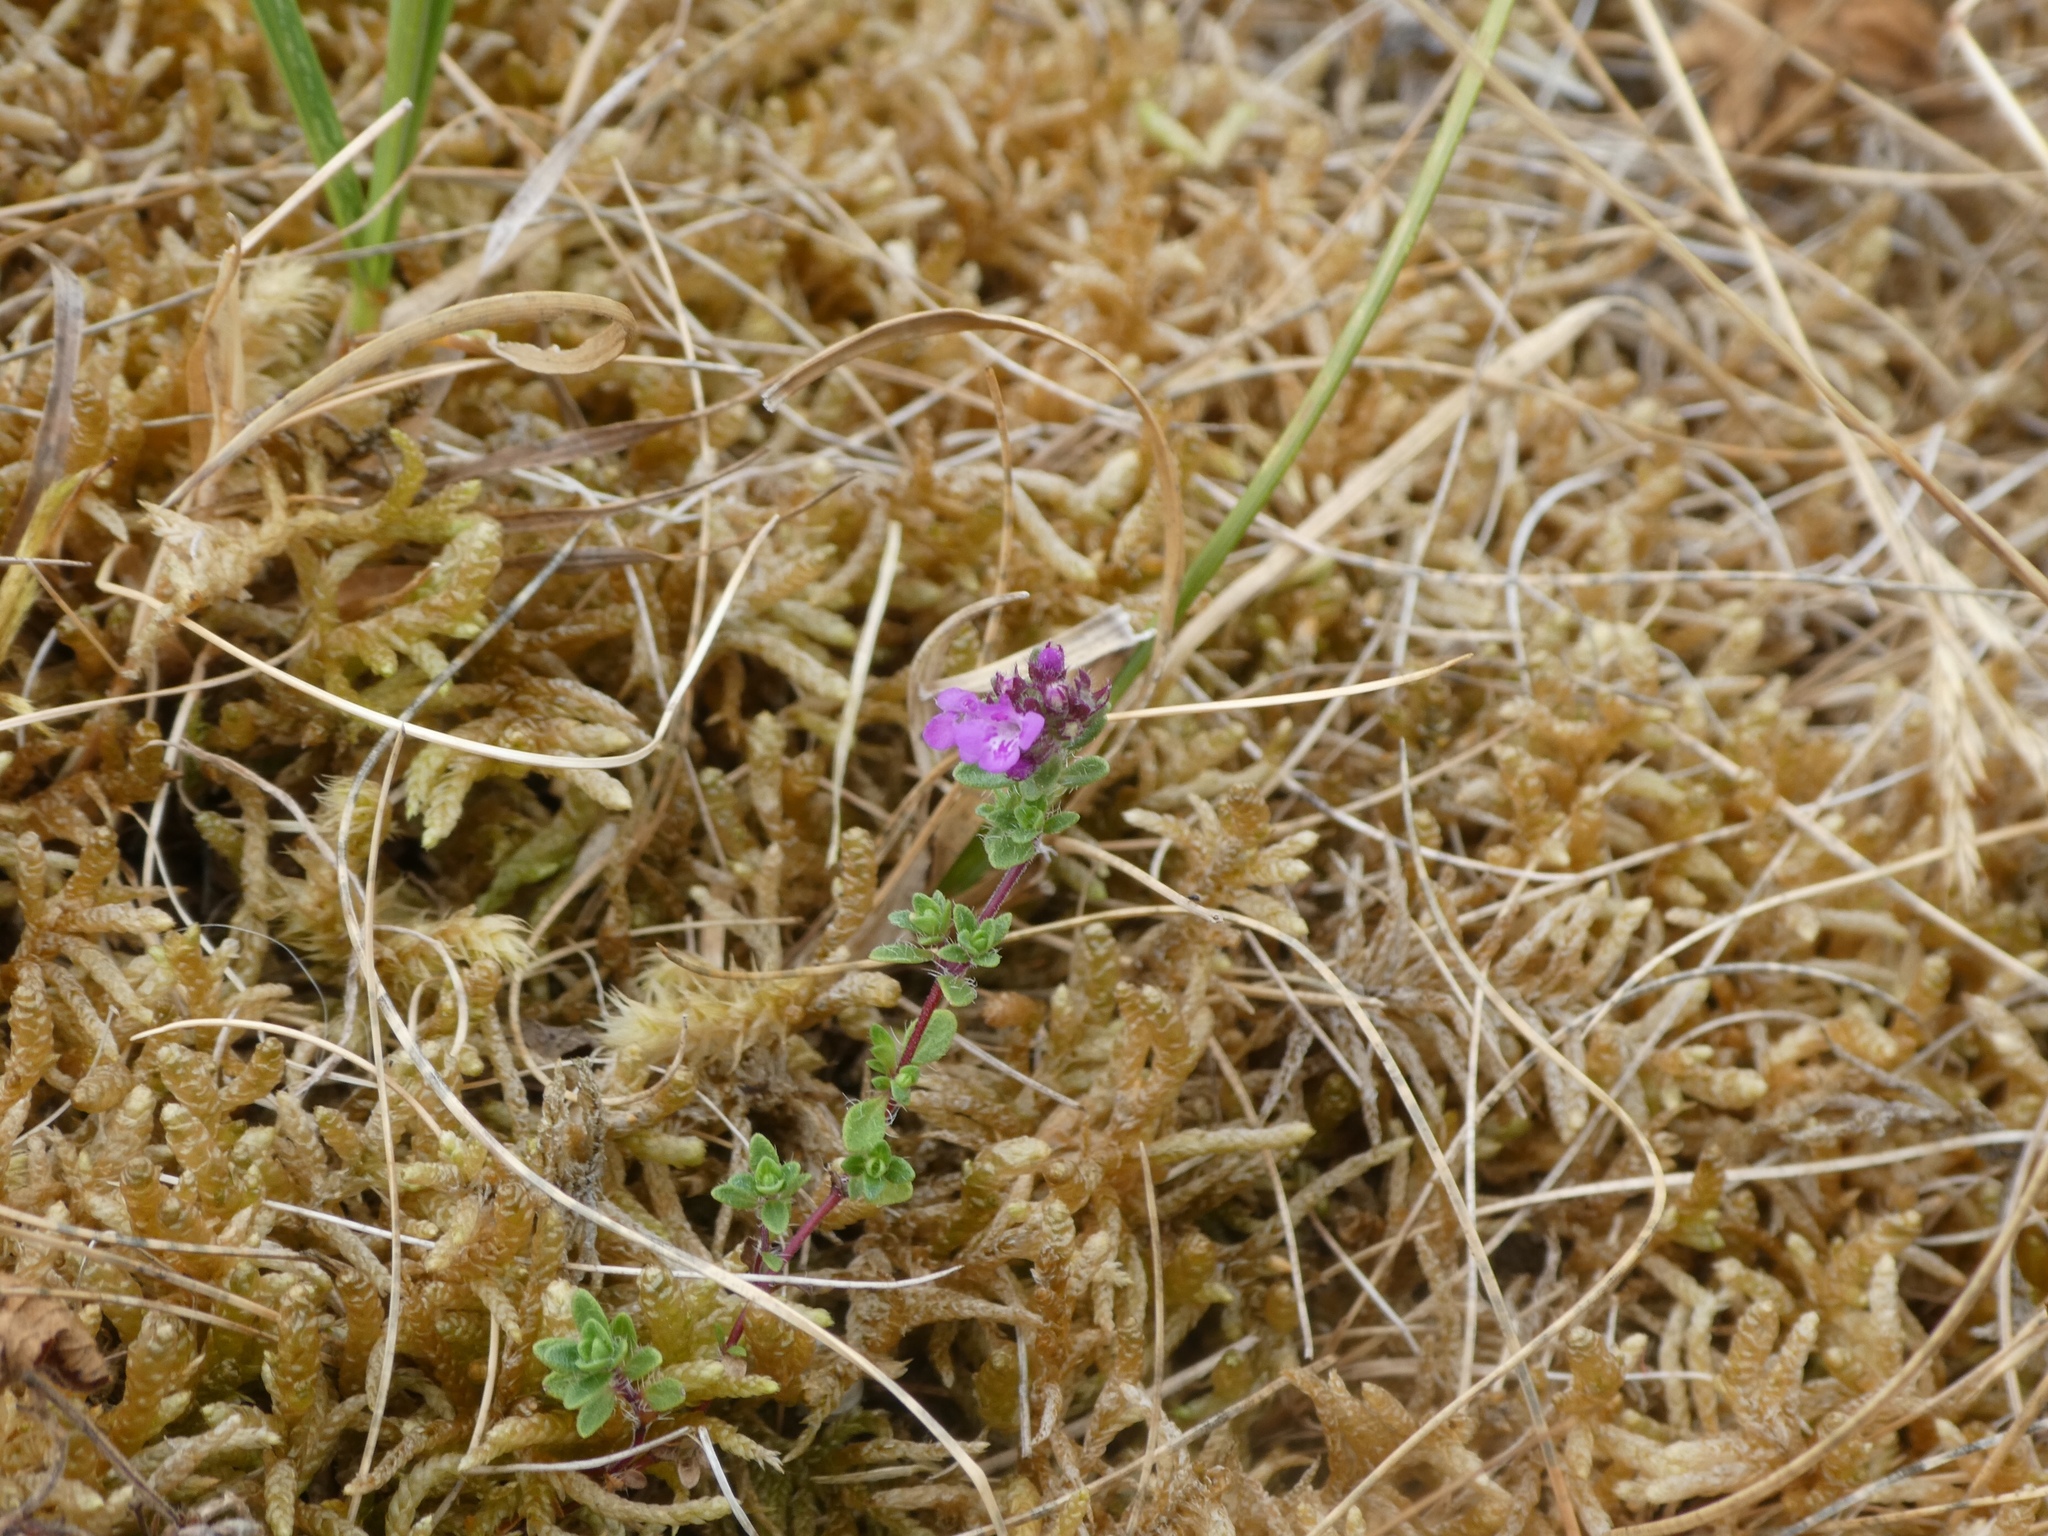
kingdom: Plantae
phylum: Tracheophyta
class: Magnoliopsida
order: Lamiales
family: Lamiaceae
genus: Thymus
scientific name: Thymus praecox
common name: Wild thyme
